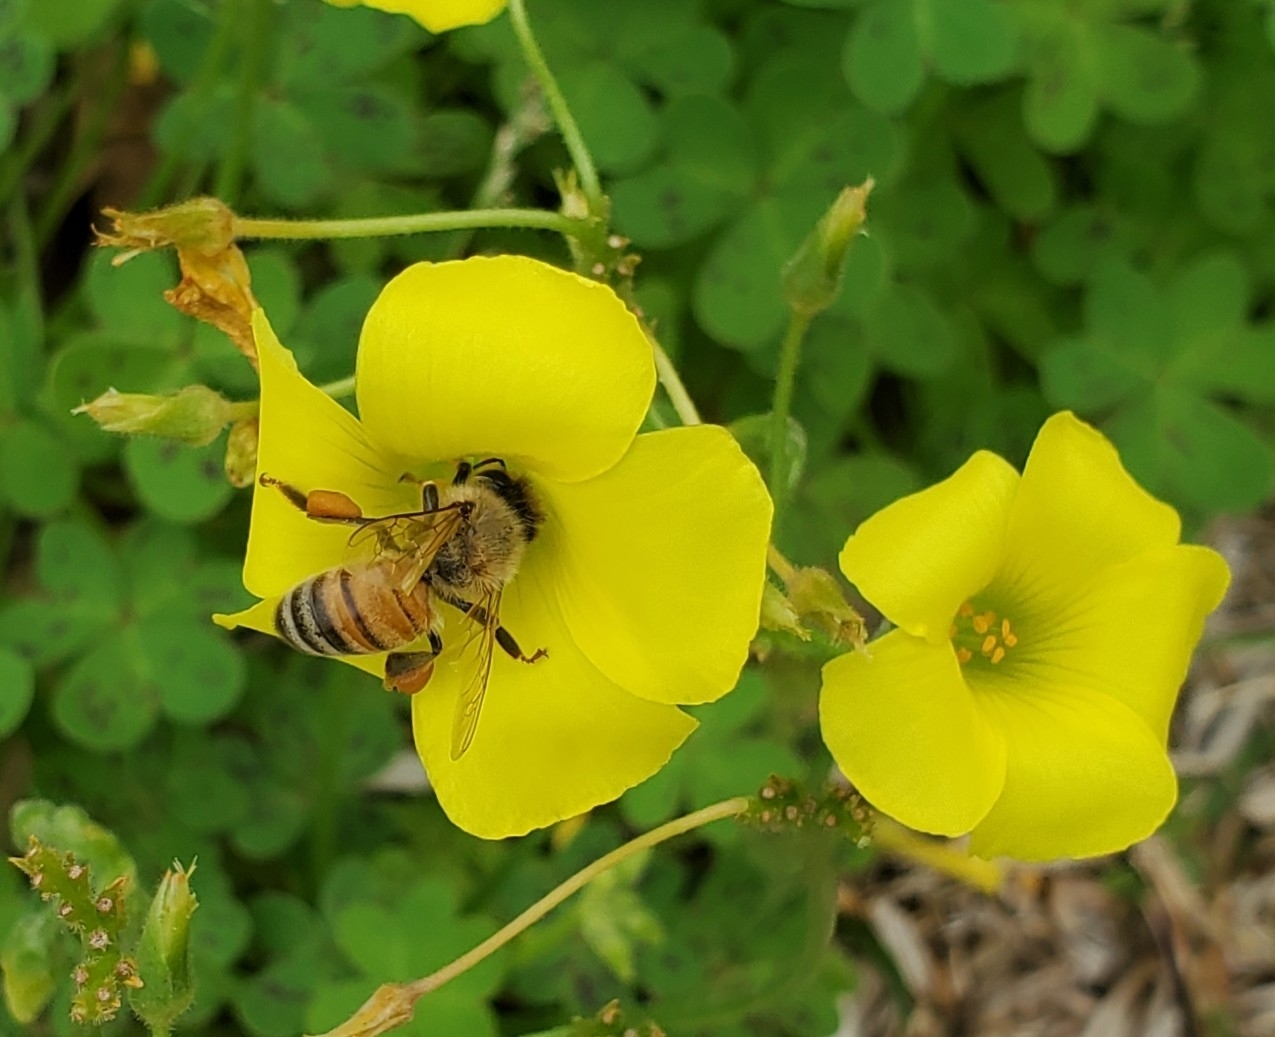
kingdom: Animalia
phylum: Arthropoda
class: Insecta
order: Hymenoptera
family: Apidae
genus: Apis
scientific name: Apis mellifera
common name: Honey bee
